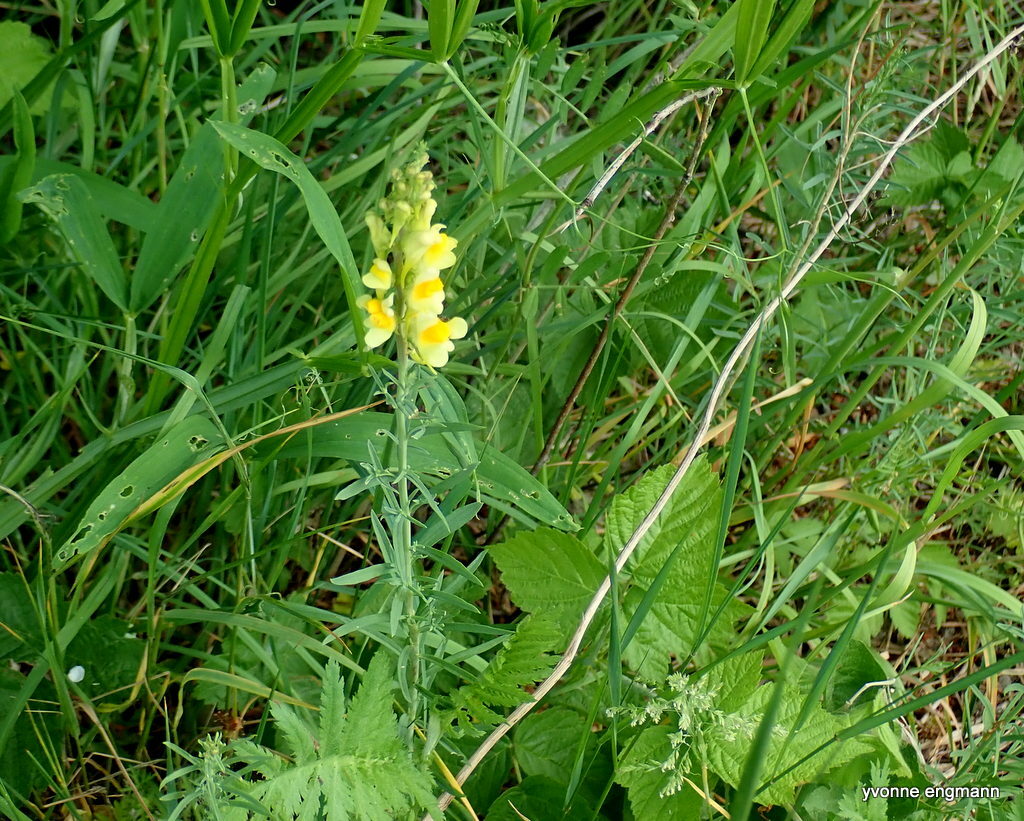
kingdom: Plantae
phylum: Tracheophyta
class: Magnoliopsida
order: Lamiales
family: Plantaginaceae
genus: Linaria
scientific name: Linaria vulgaris
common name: Butter and eggs
